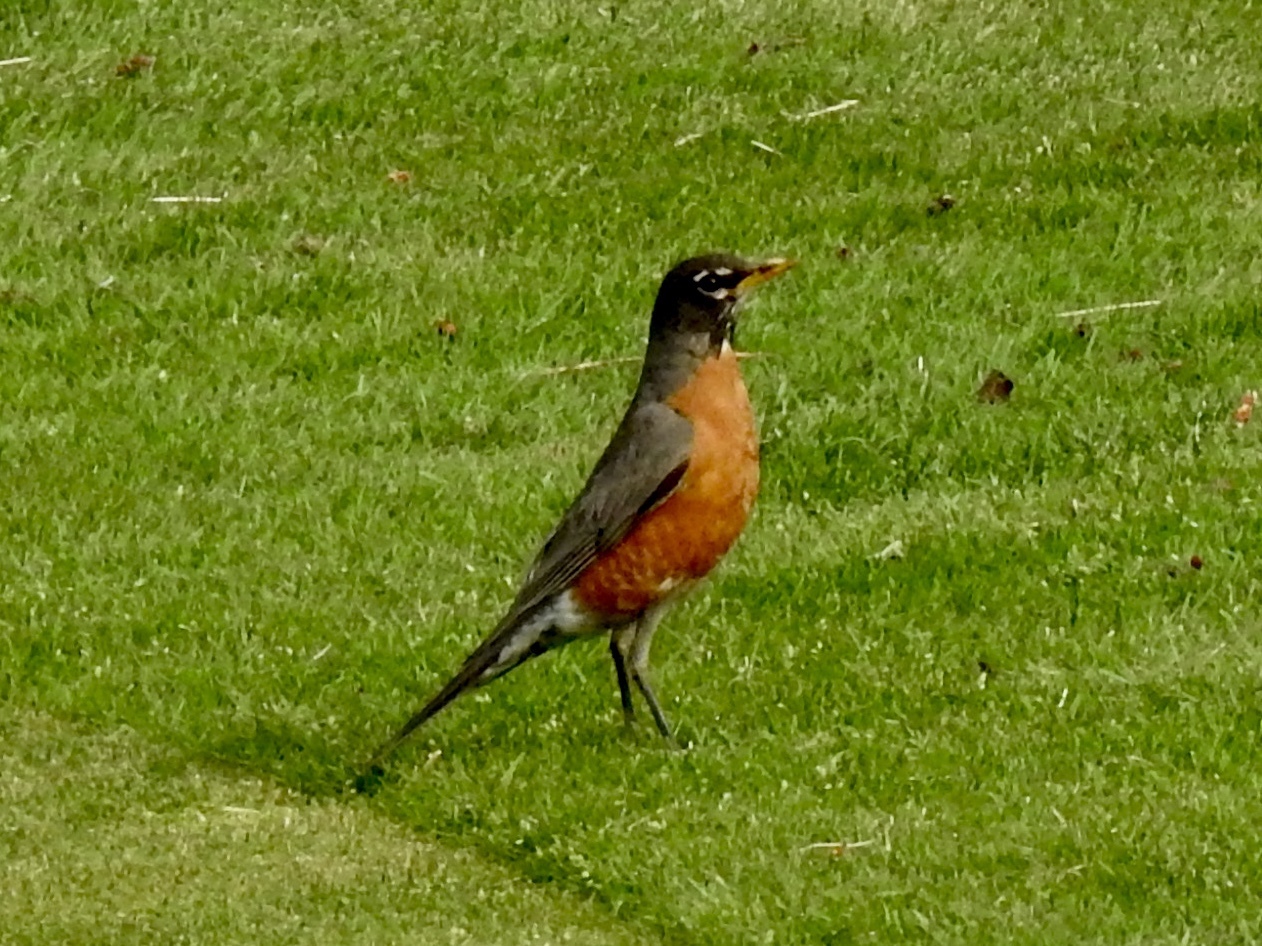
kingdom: Animalia
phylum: Chordata
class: Aves
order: Passeriformes
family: Turdidae
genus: Turdus
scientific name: Turdus migratorius
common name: American robin
